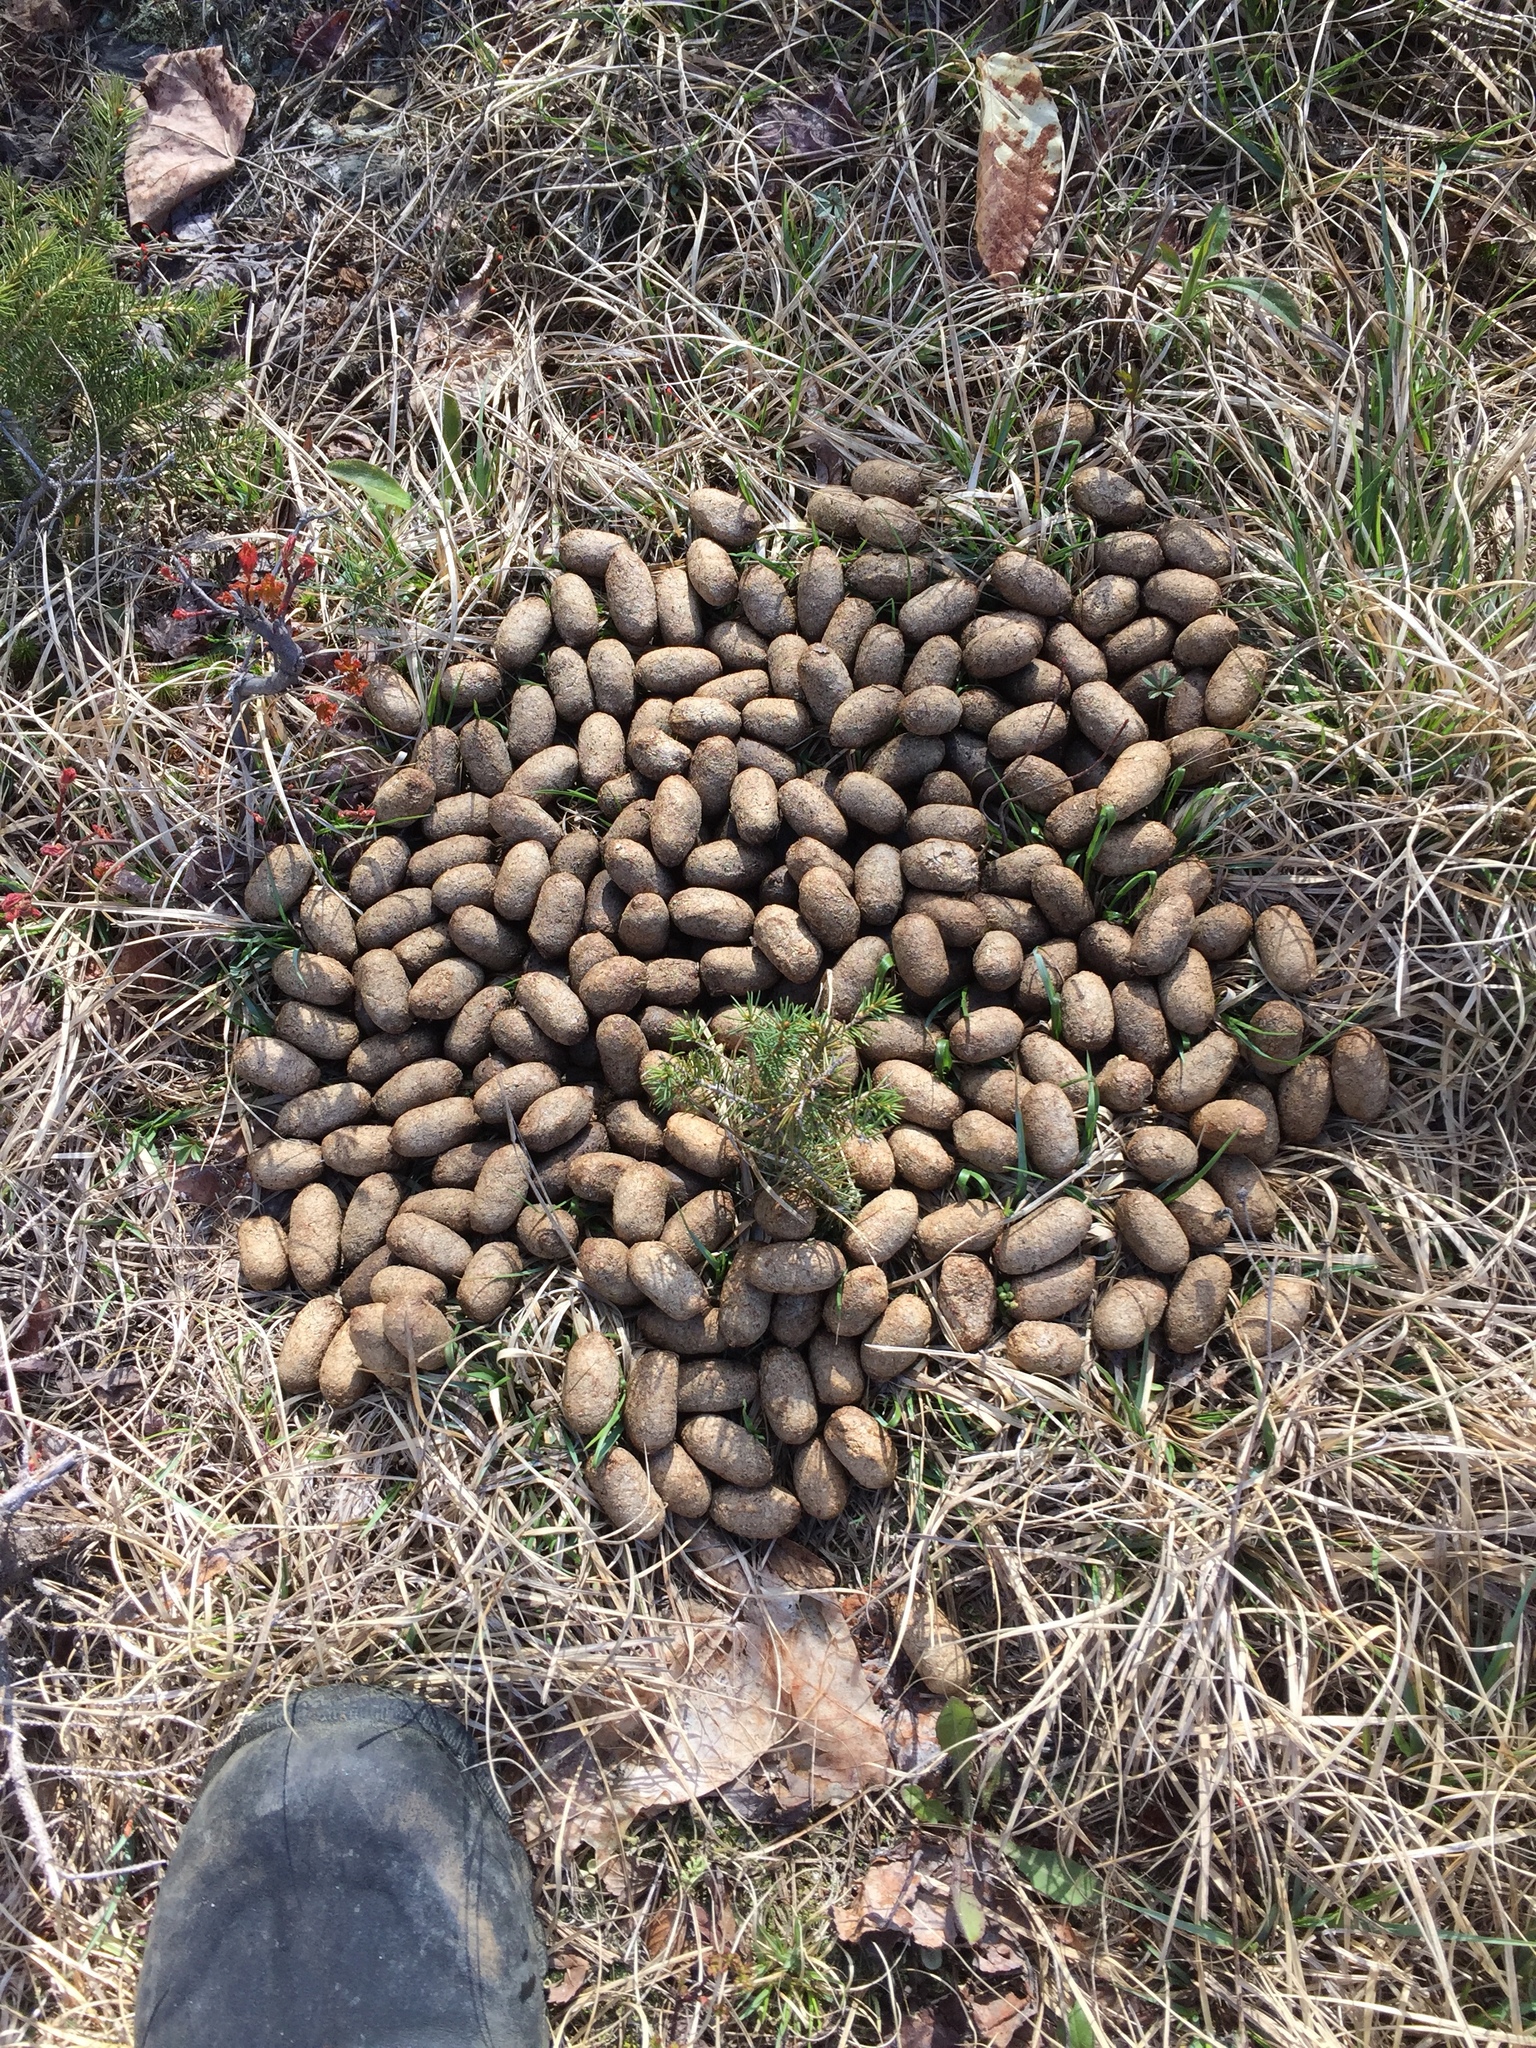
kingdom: Animalia
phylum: Chordata
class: Mammalia
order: Artiodactyla
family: Cervidae
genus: Alces
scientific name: Alces alces
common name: Moose
